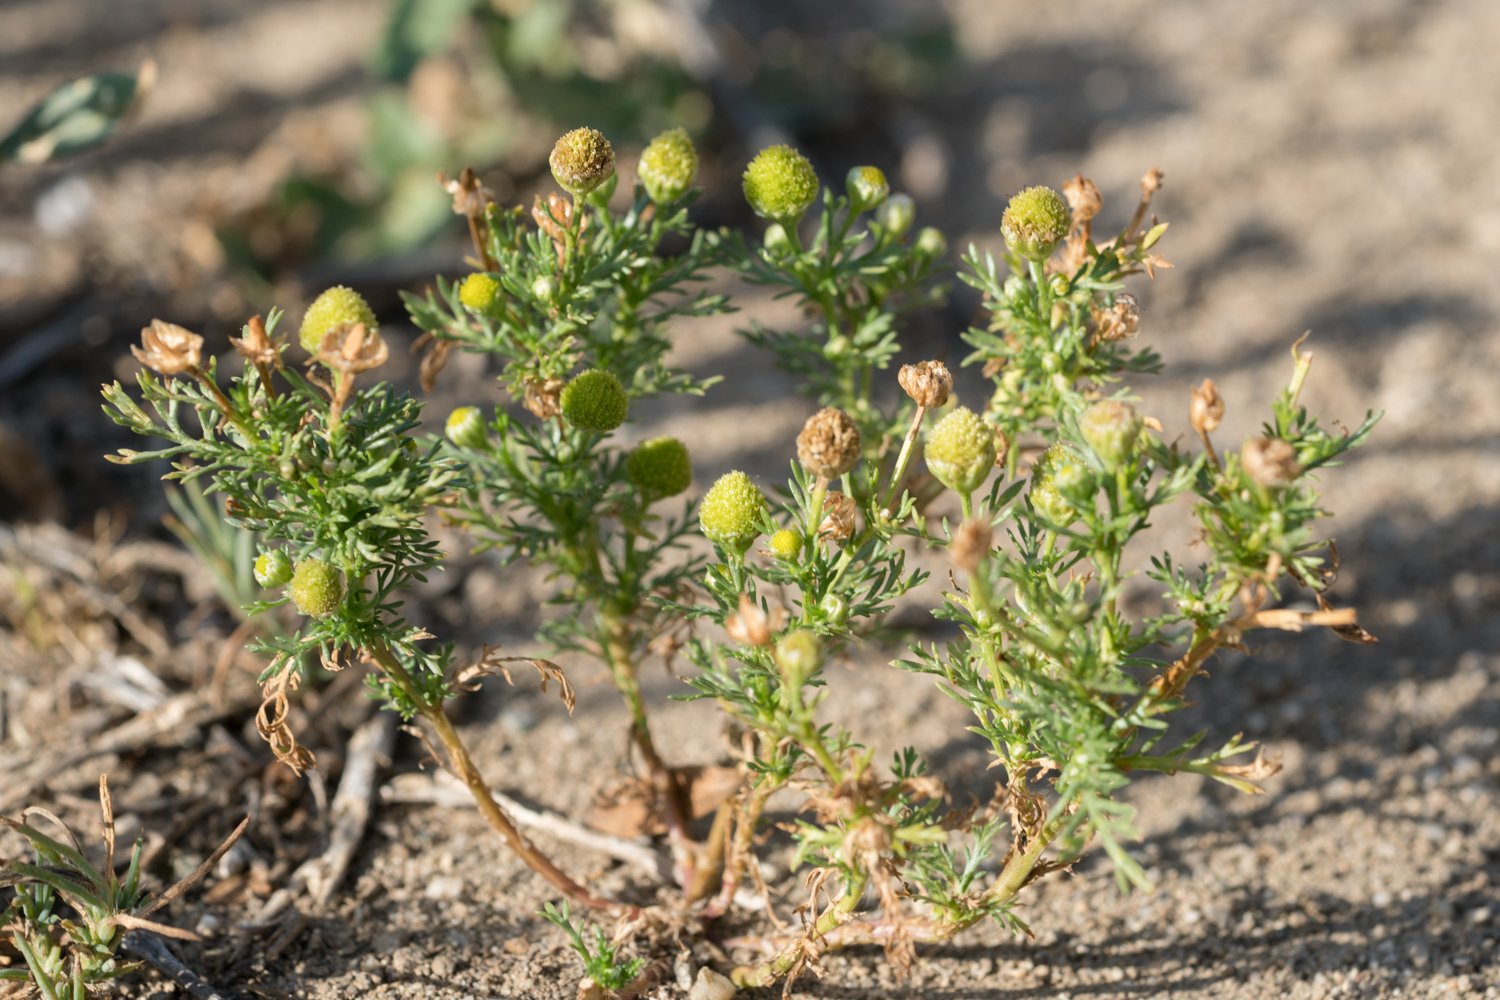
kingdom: Plantae
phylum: Tracheophyta
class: Magnoliopsida
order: Asterales
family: Asteraceae
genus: Matricaria
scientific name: Matricaria discoidea
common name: Disc mayweed
